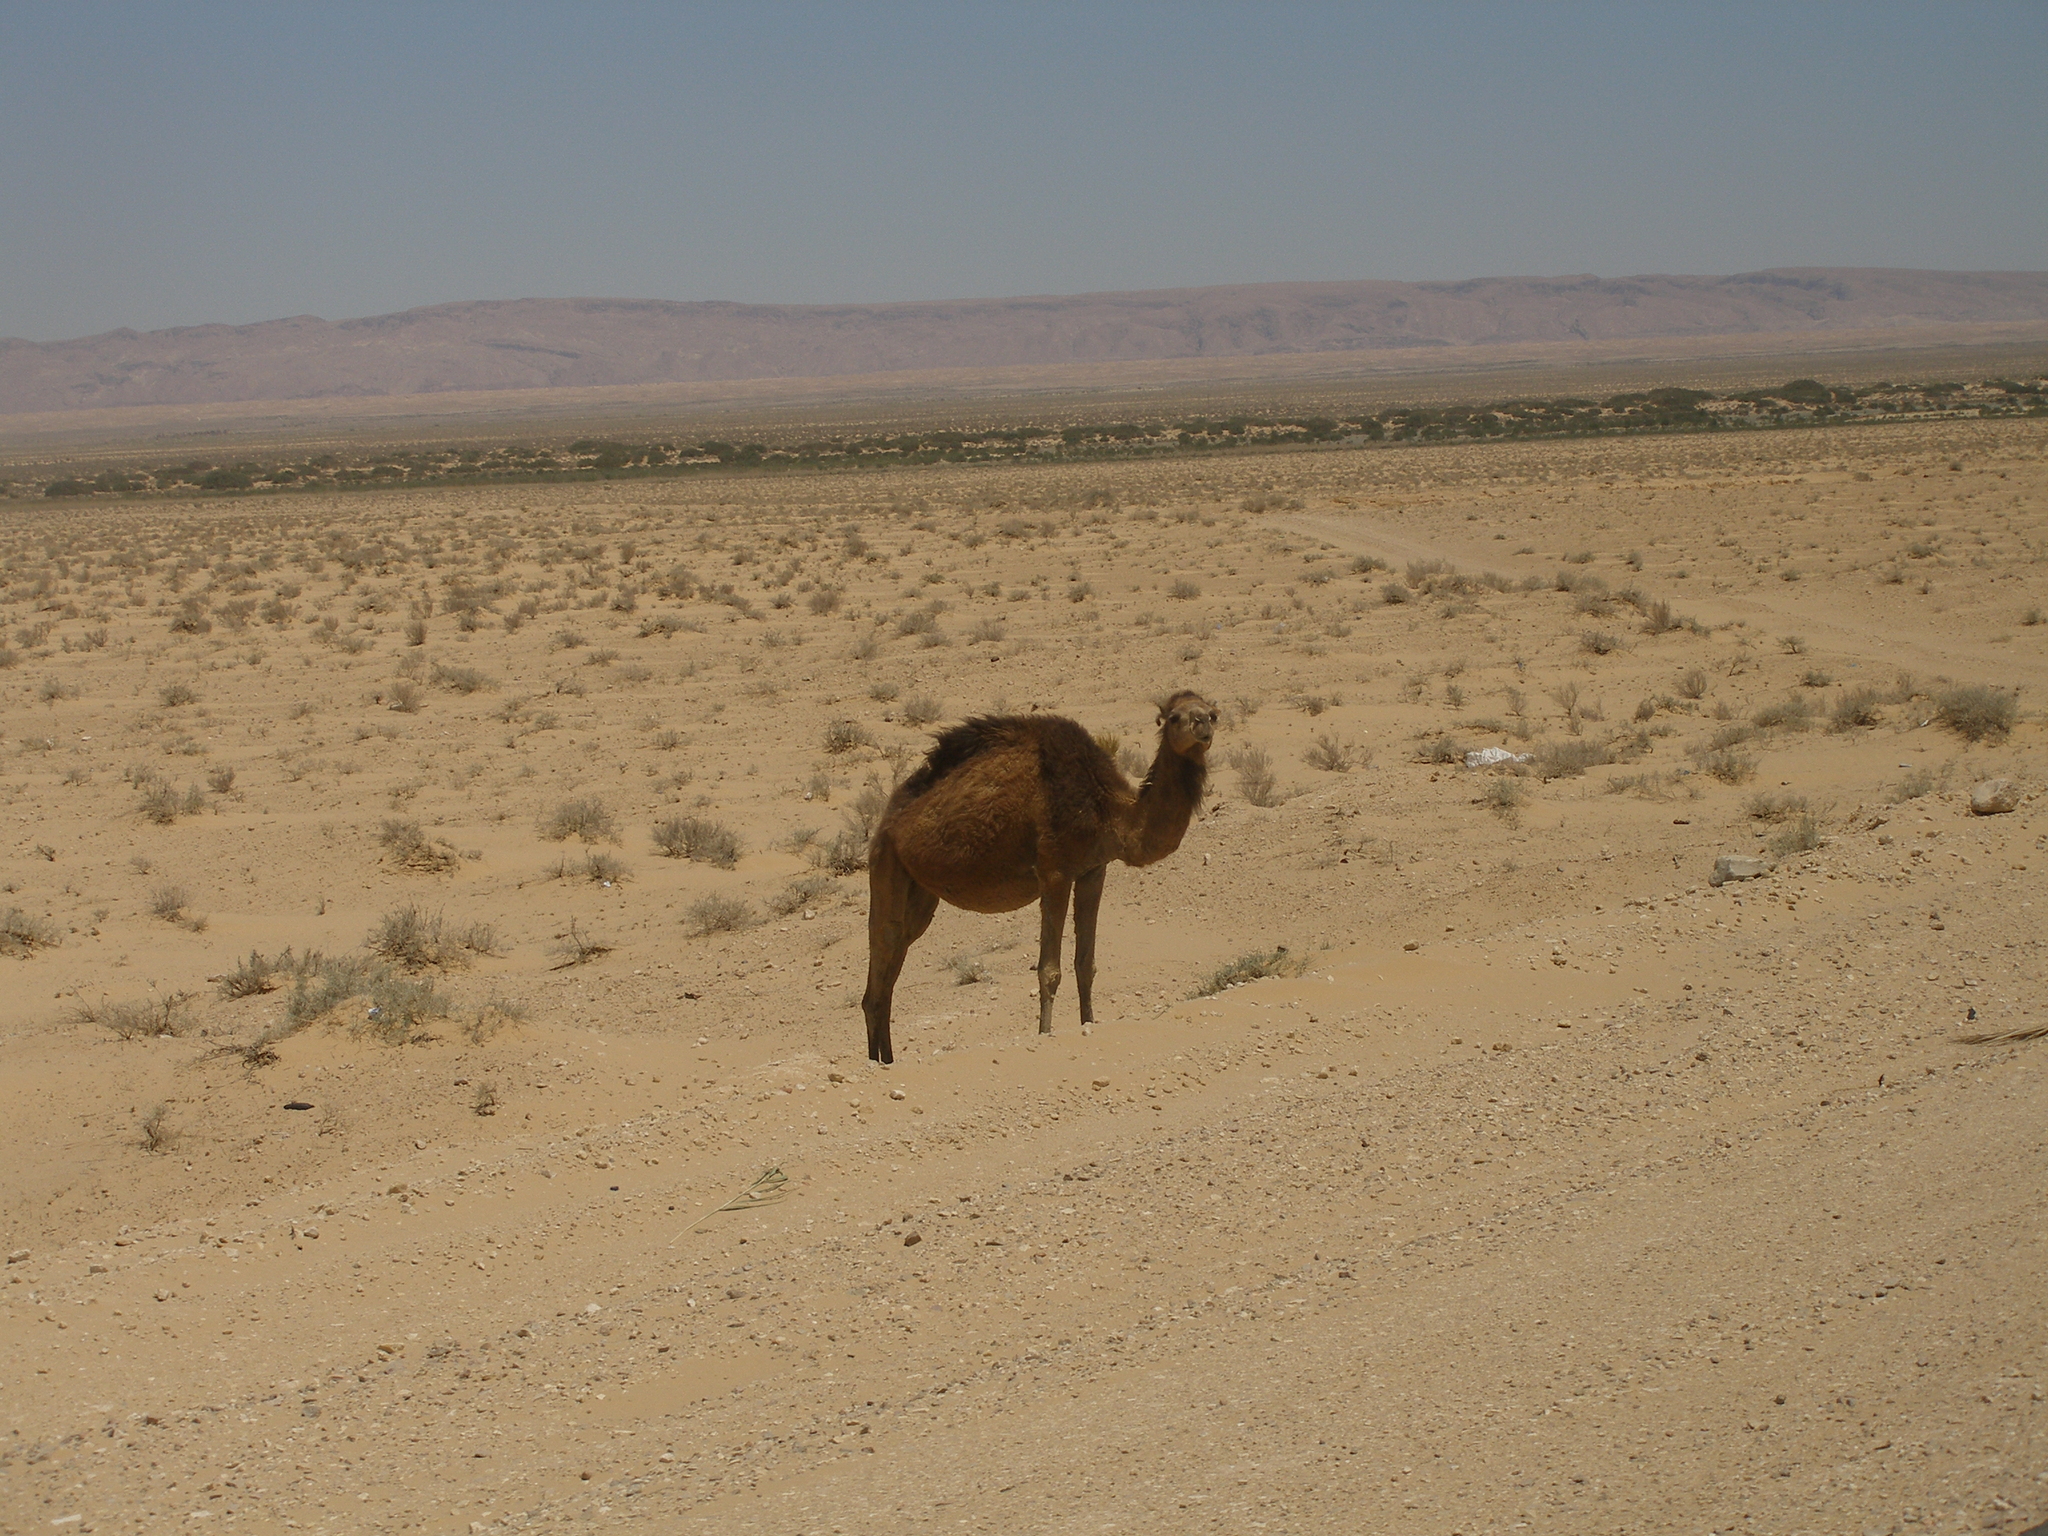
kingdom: Animalia
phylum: Chordata
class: Mammalia
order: Artiodactyla
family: Camelidae
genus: Camelus
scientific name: Camelus dromedarius
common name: One-humped camel
